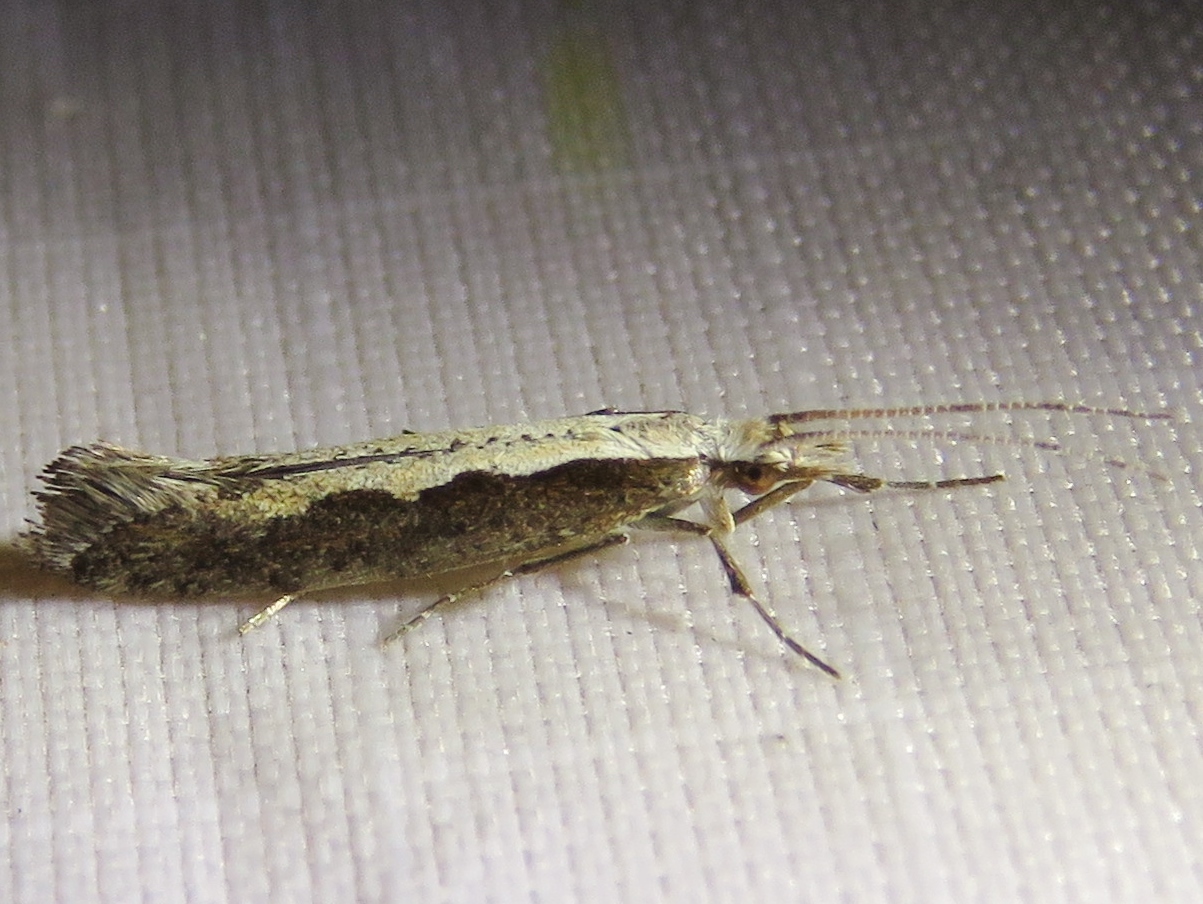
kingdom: Animalia
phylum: Arthropoda
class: Insecta
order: Lepidoptera
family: Plutellidae
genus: Plutella
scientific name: Plutella xylostella
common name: Diamond-back moth
